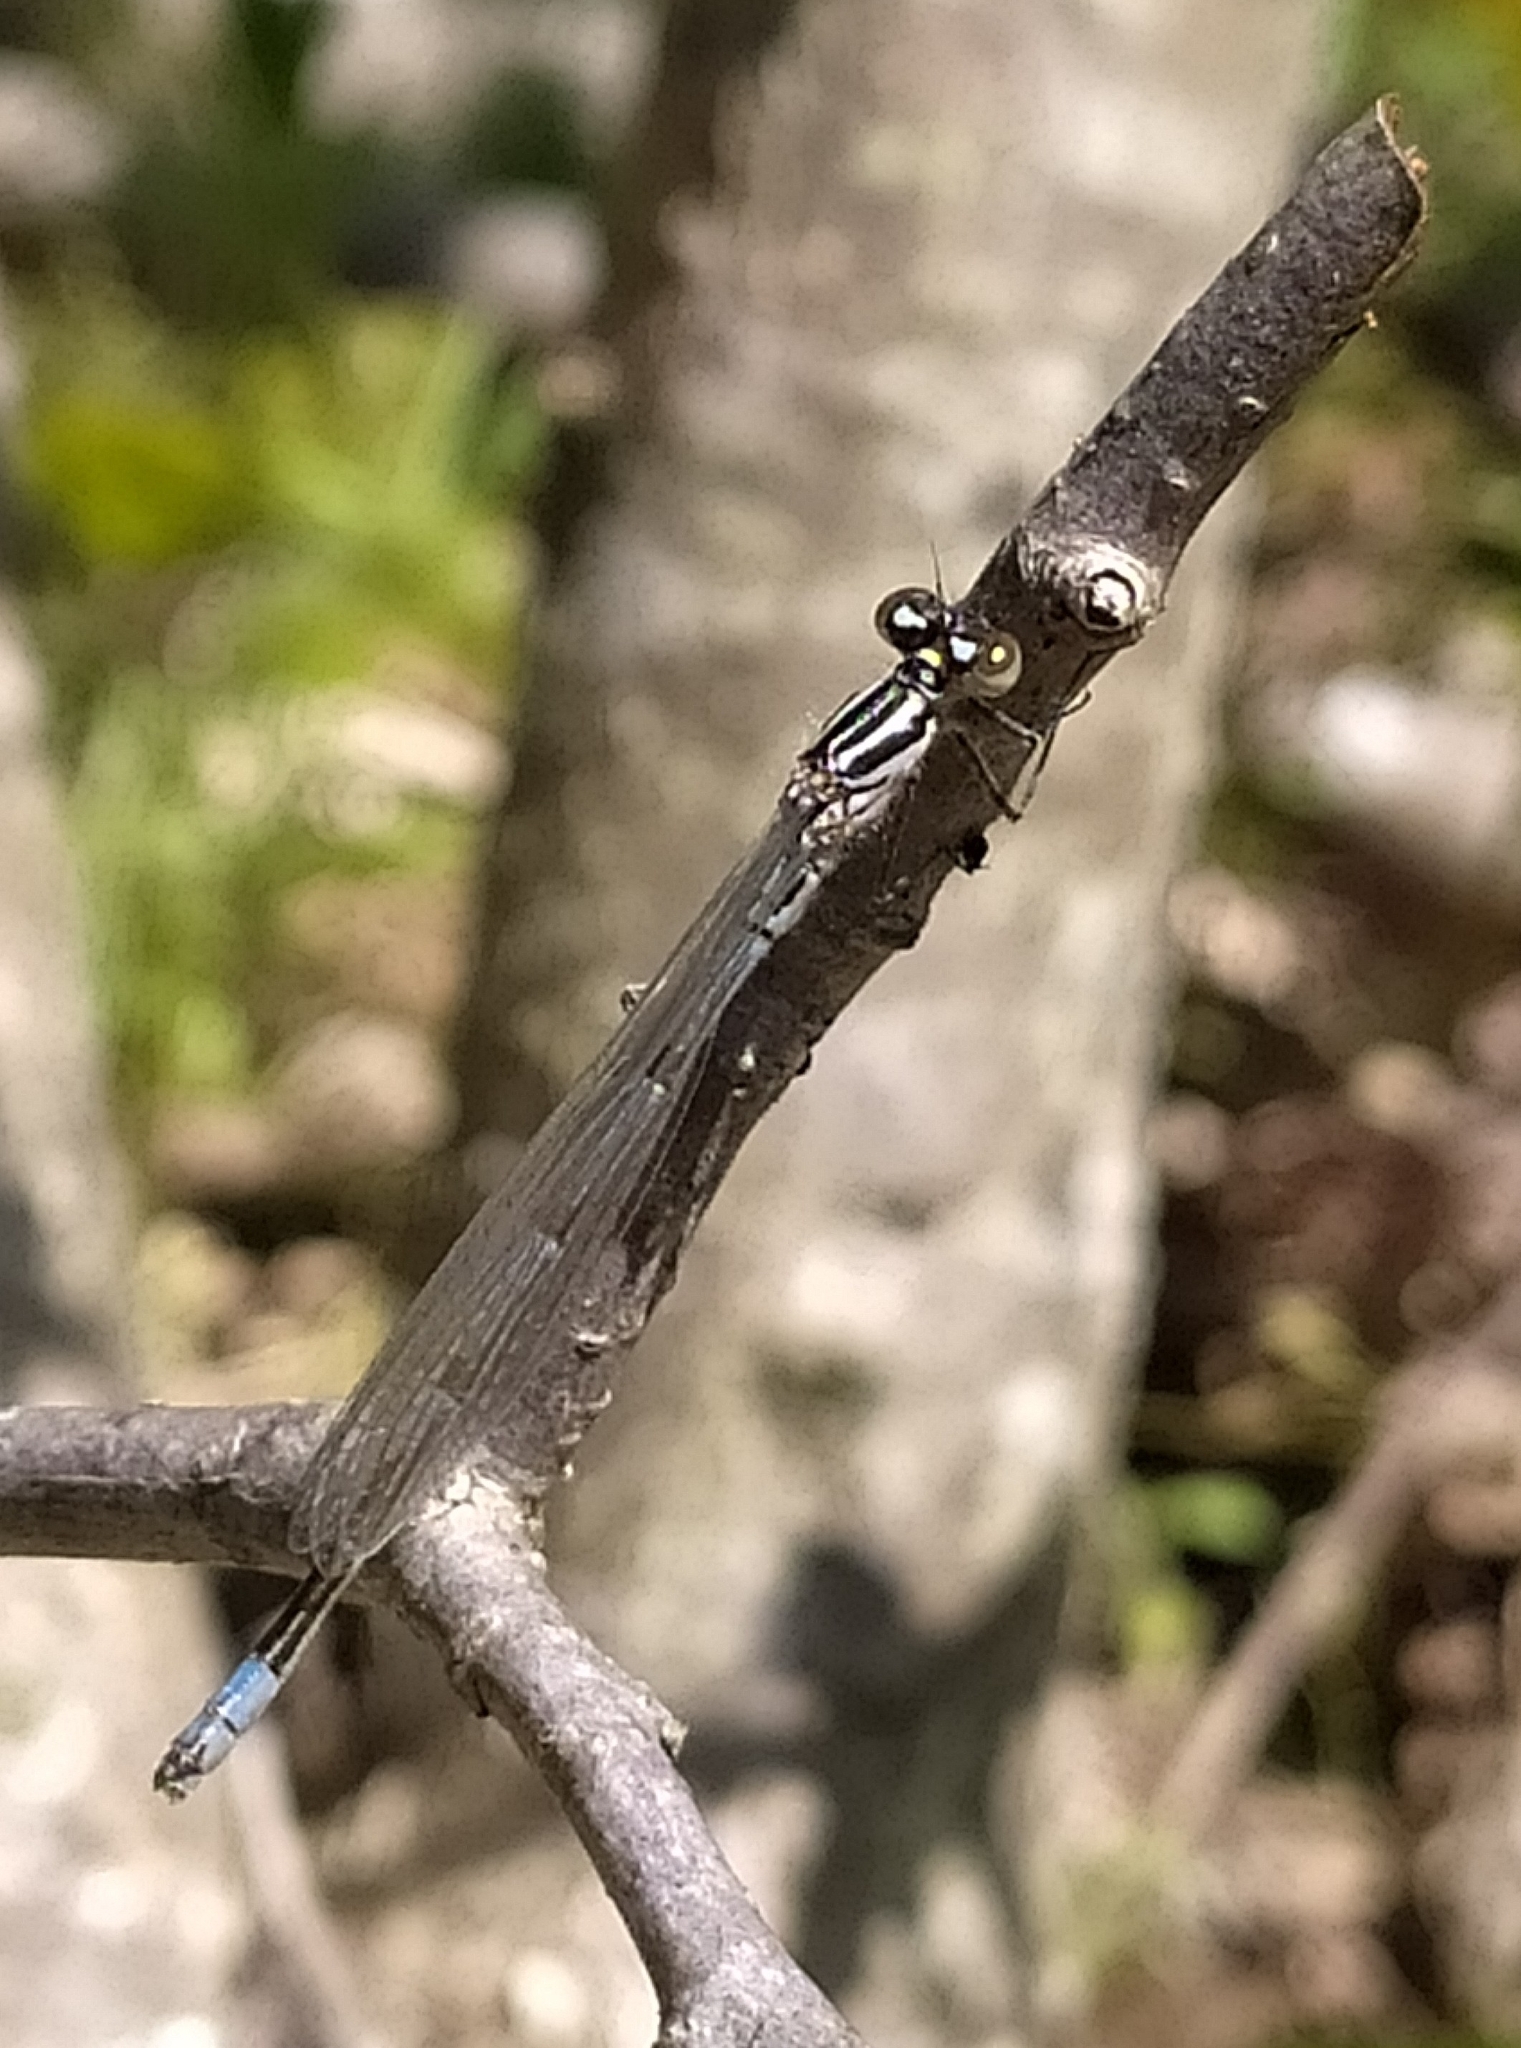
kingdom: Animalia
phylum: Arthropoda
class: Insecta
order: Odonata
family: Coenagrionidae
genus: Coenagrion
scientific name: Coenagrion puella
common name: Azure damselfly
